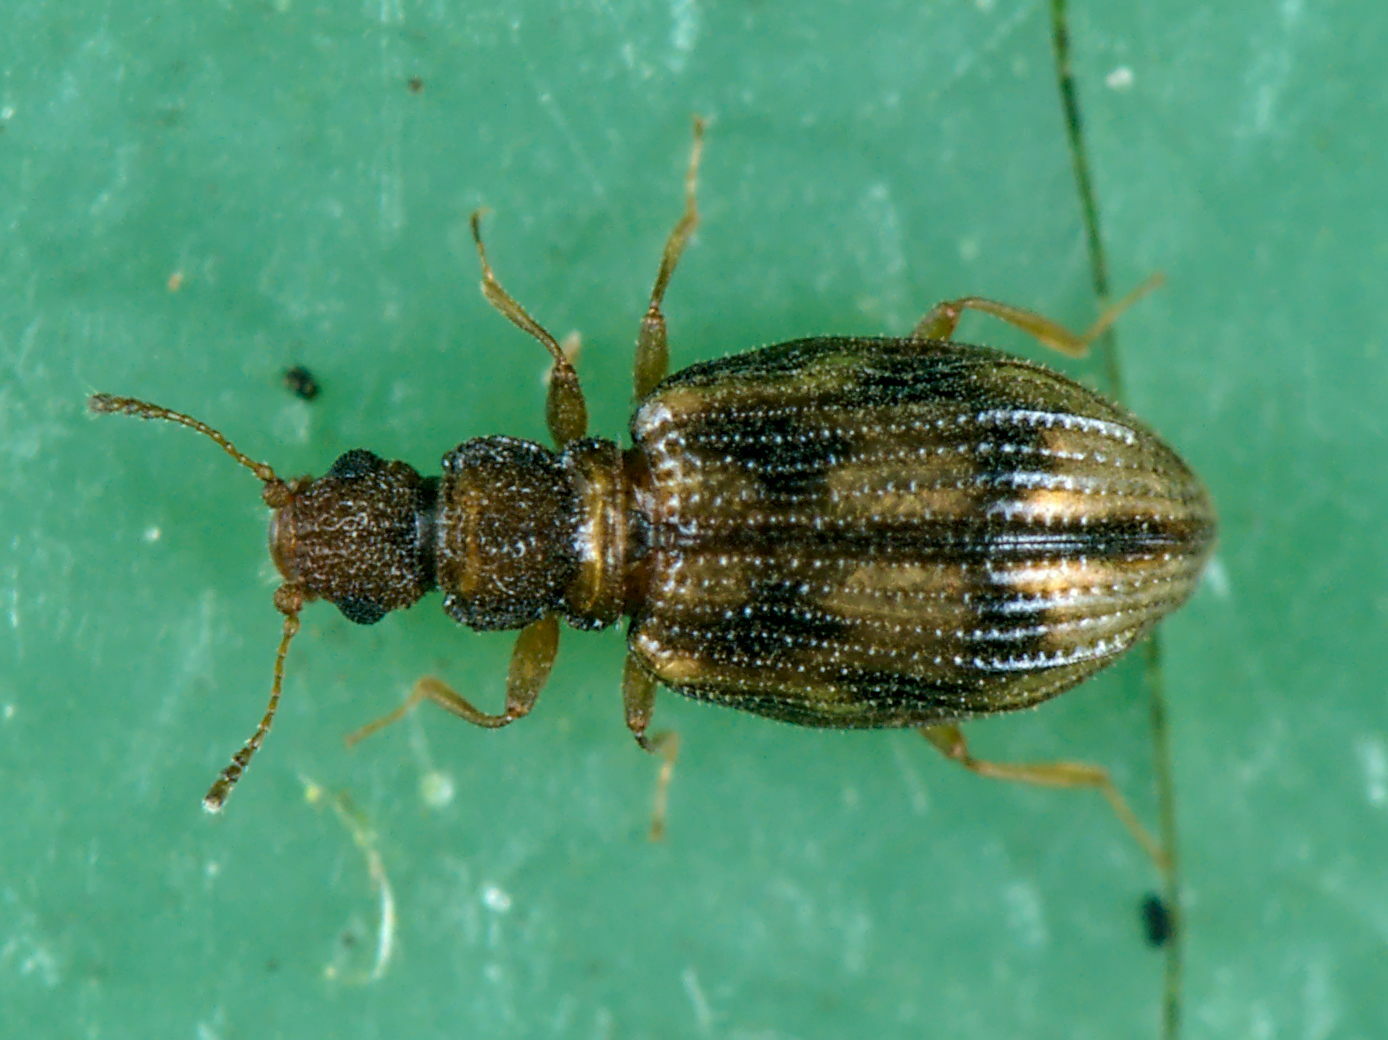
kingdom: Animalia
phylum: Arthropoda
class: Insecta
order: Coleoptera
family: Latridiidae
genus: Cartodere
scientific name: Cartodere bifasciata
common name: Plaster beetle
